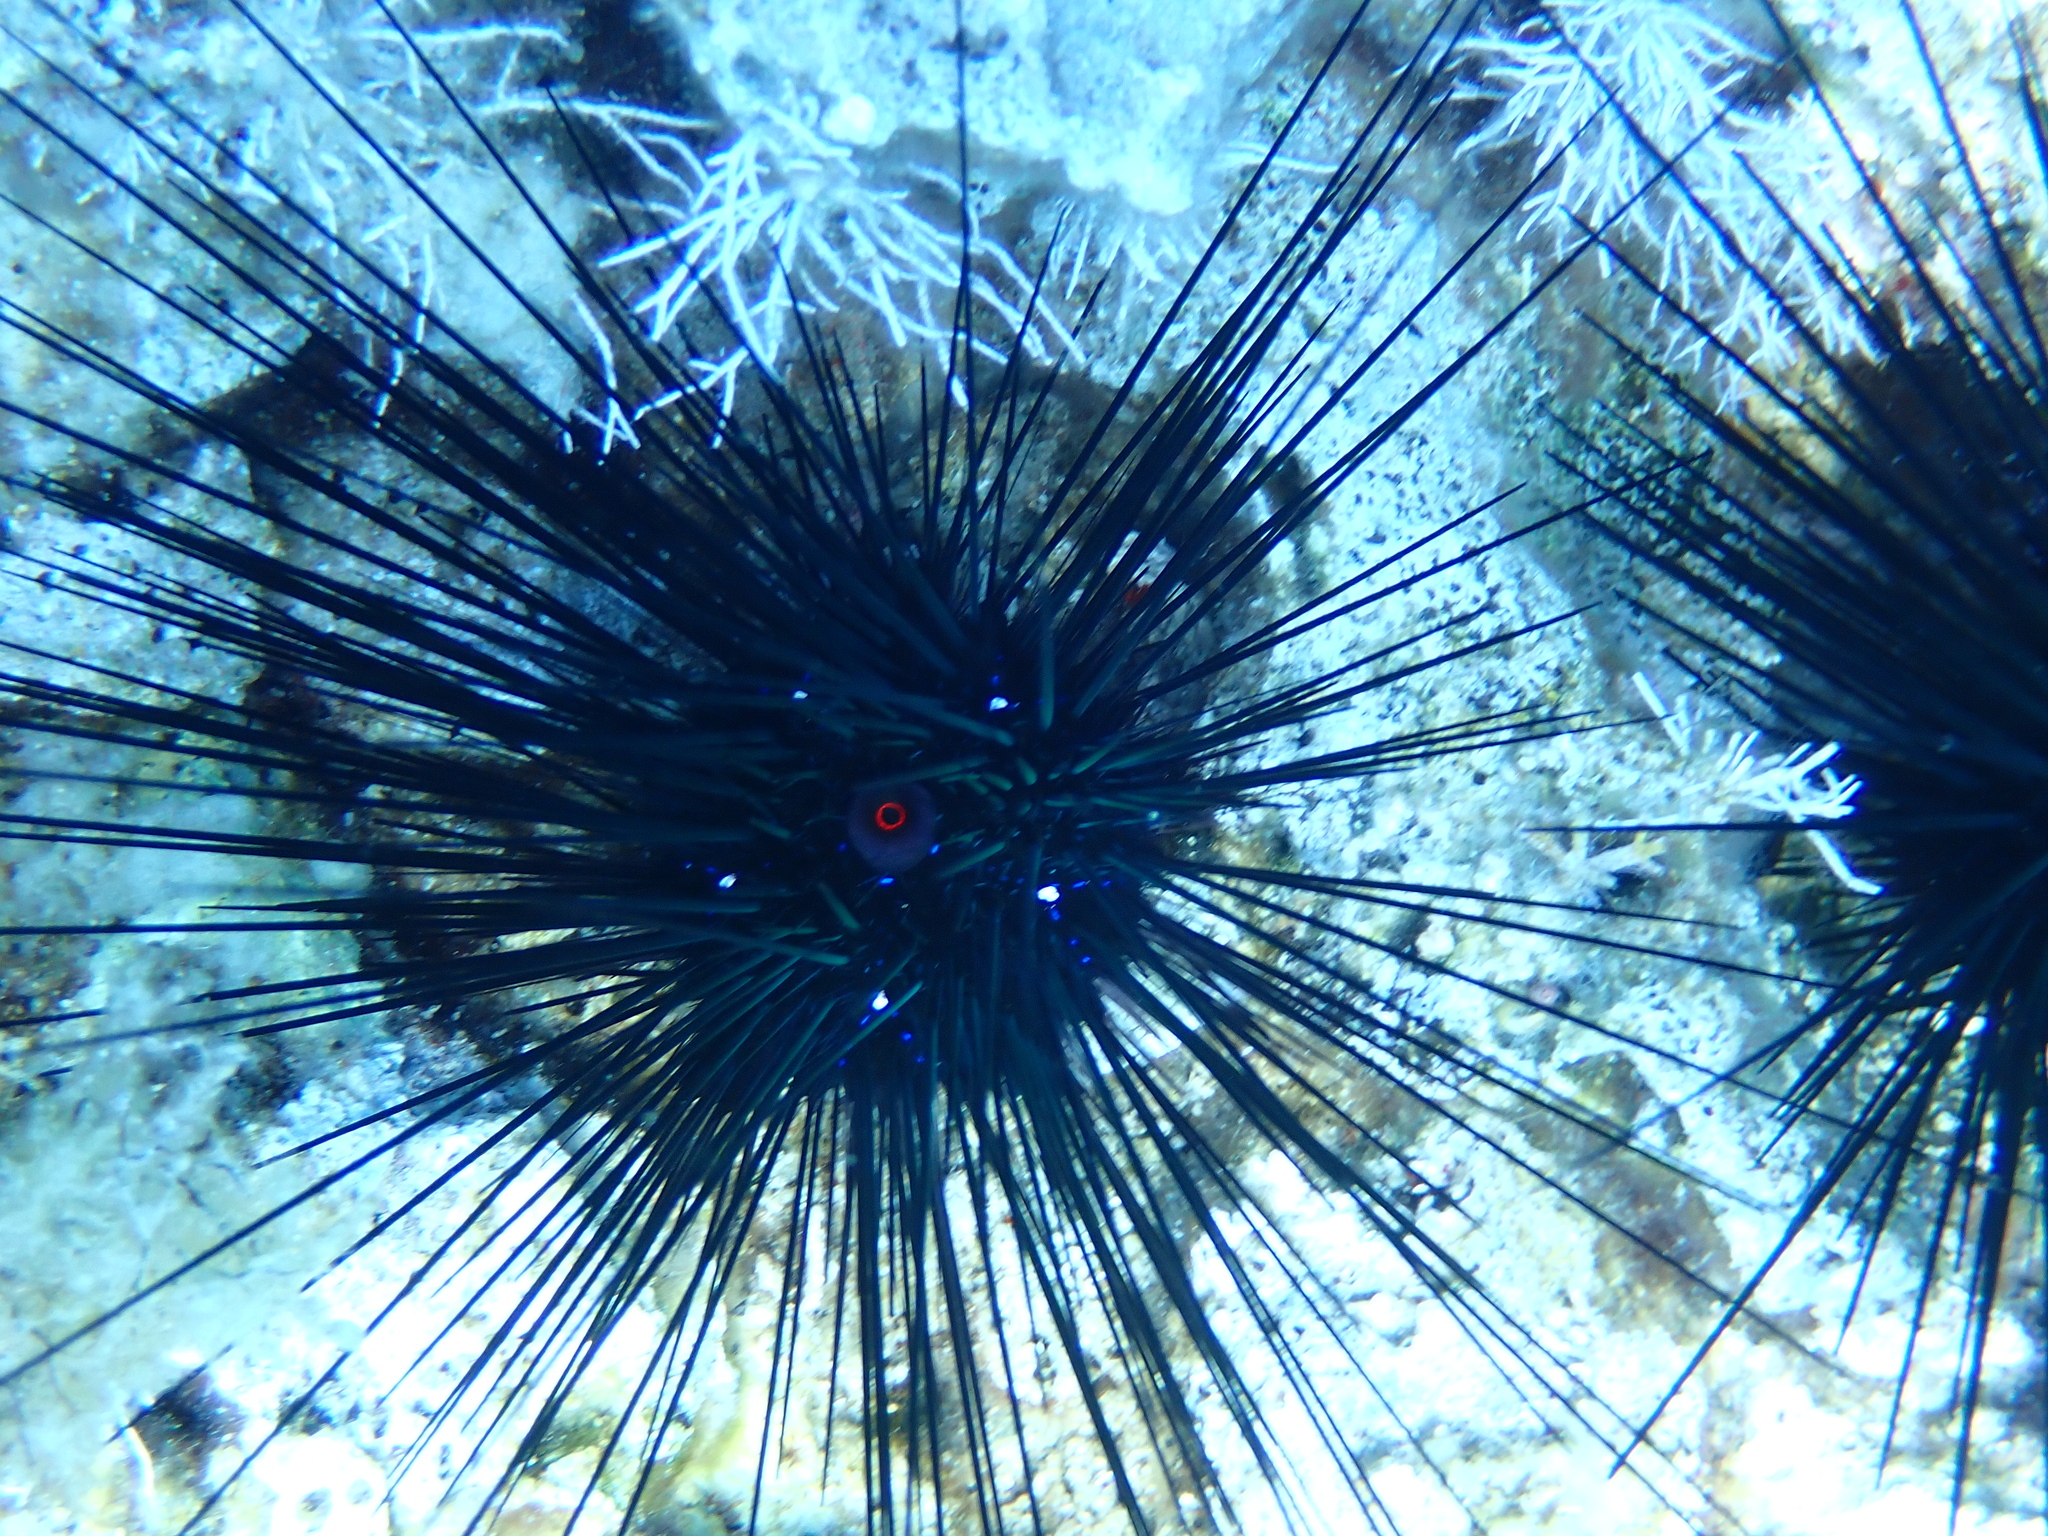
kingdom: Animalia
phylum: Echinodermata
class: Echinoidea
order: Diadematoida
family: Diadematidae
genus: Diadema
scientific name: Diadema setosum
